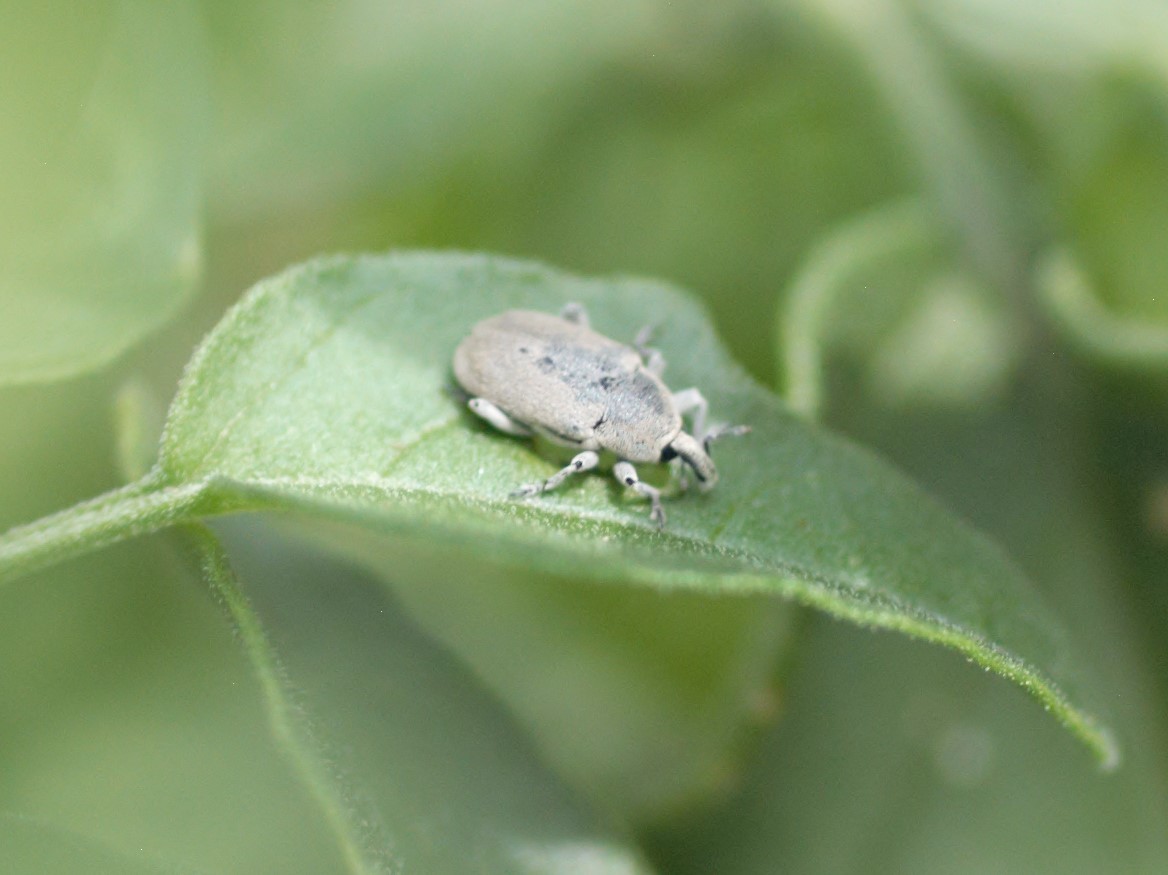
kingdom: Animalia
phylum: Arthropoda
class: Insecta
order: Coleoptera
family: Curculionidae
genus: Trichobaris
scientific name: Trichobaris
